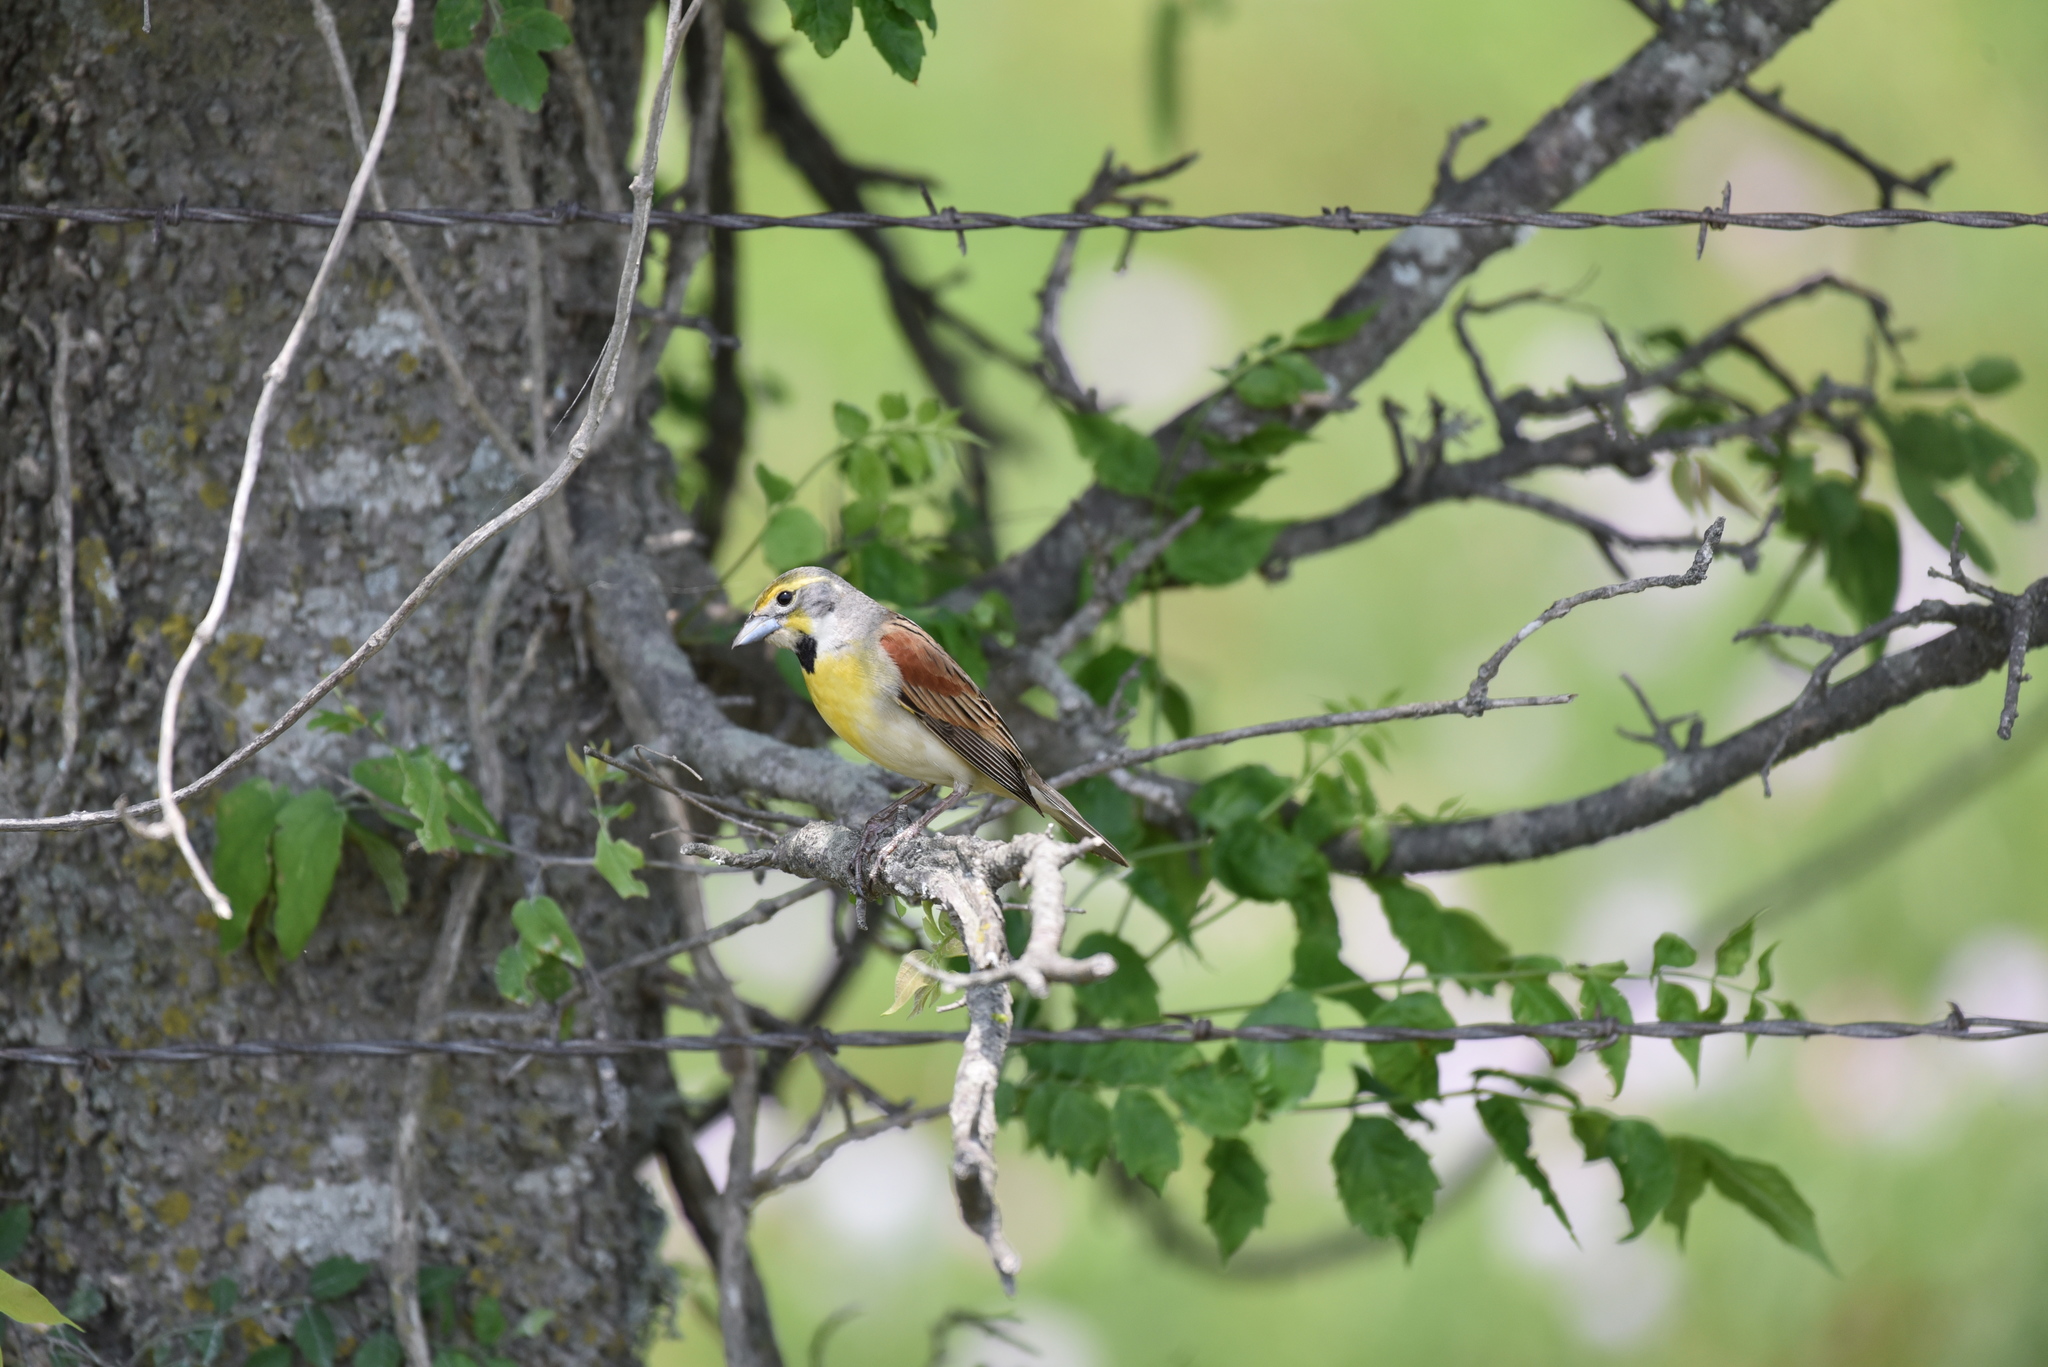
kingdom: Animalia
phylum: Chordata
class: Aves
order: Passeriformes
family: Cardinalidae
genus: Spiza
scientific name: Spiza americana
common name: Dickcissel
